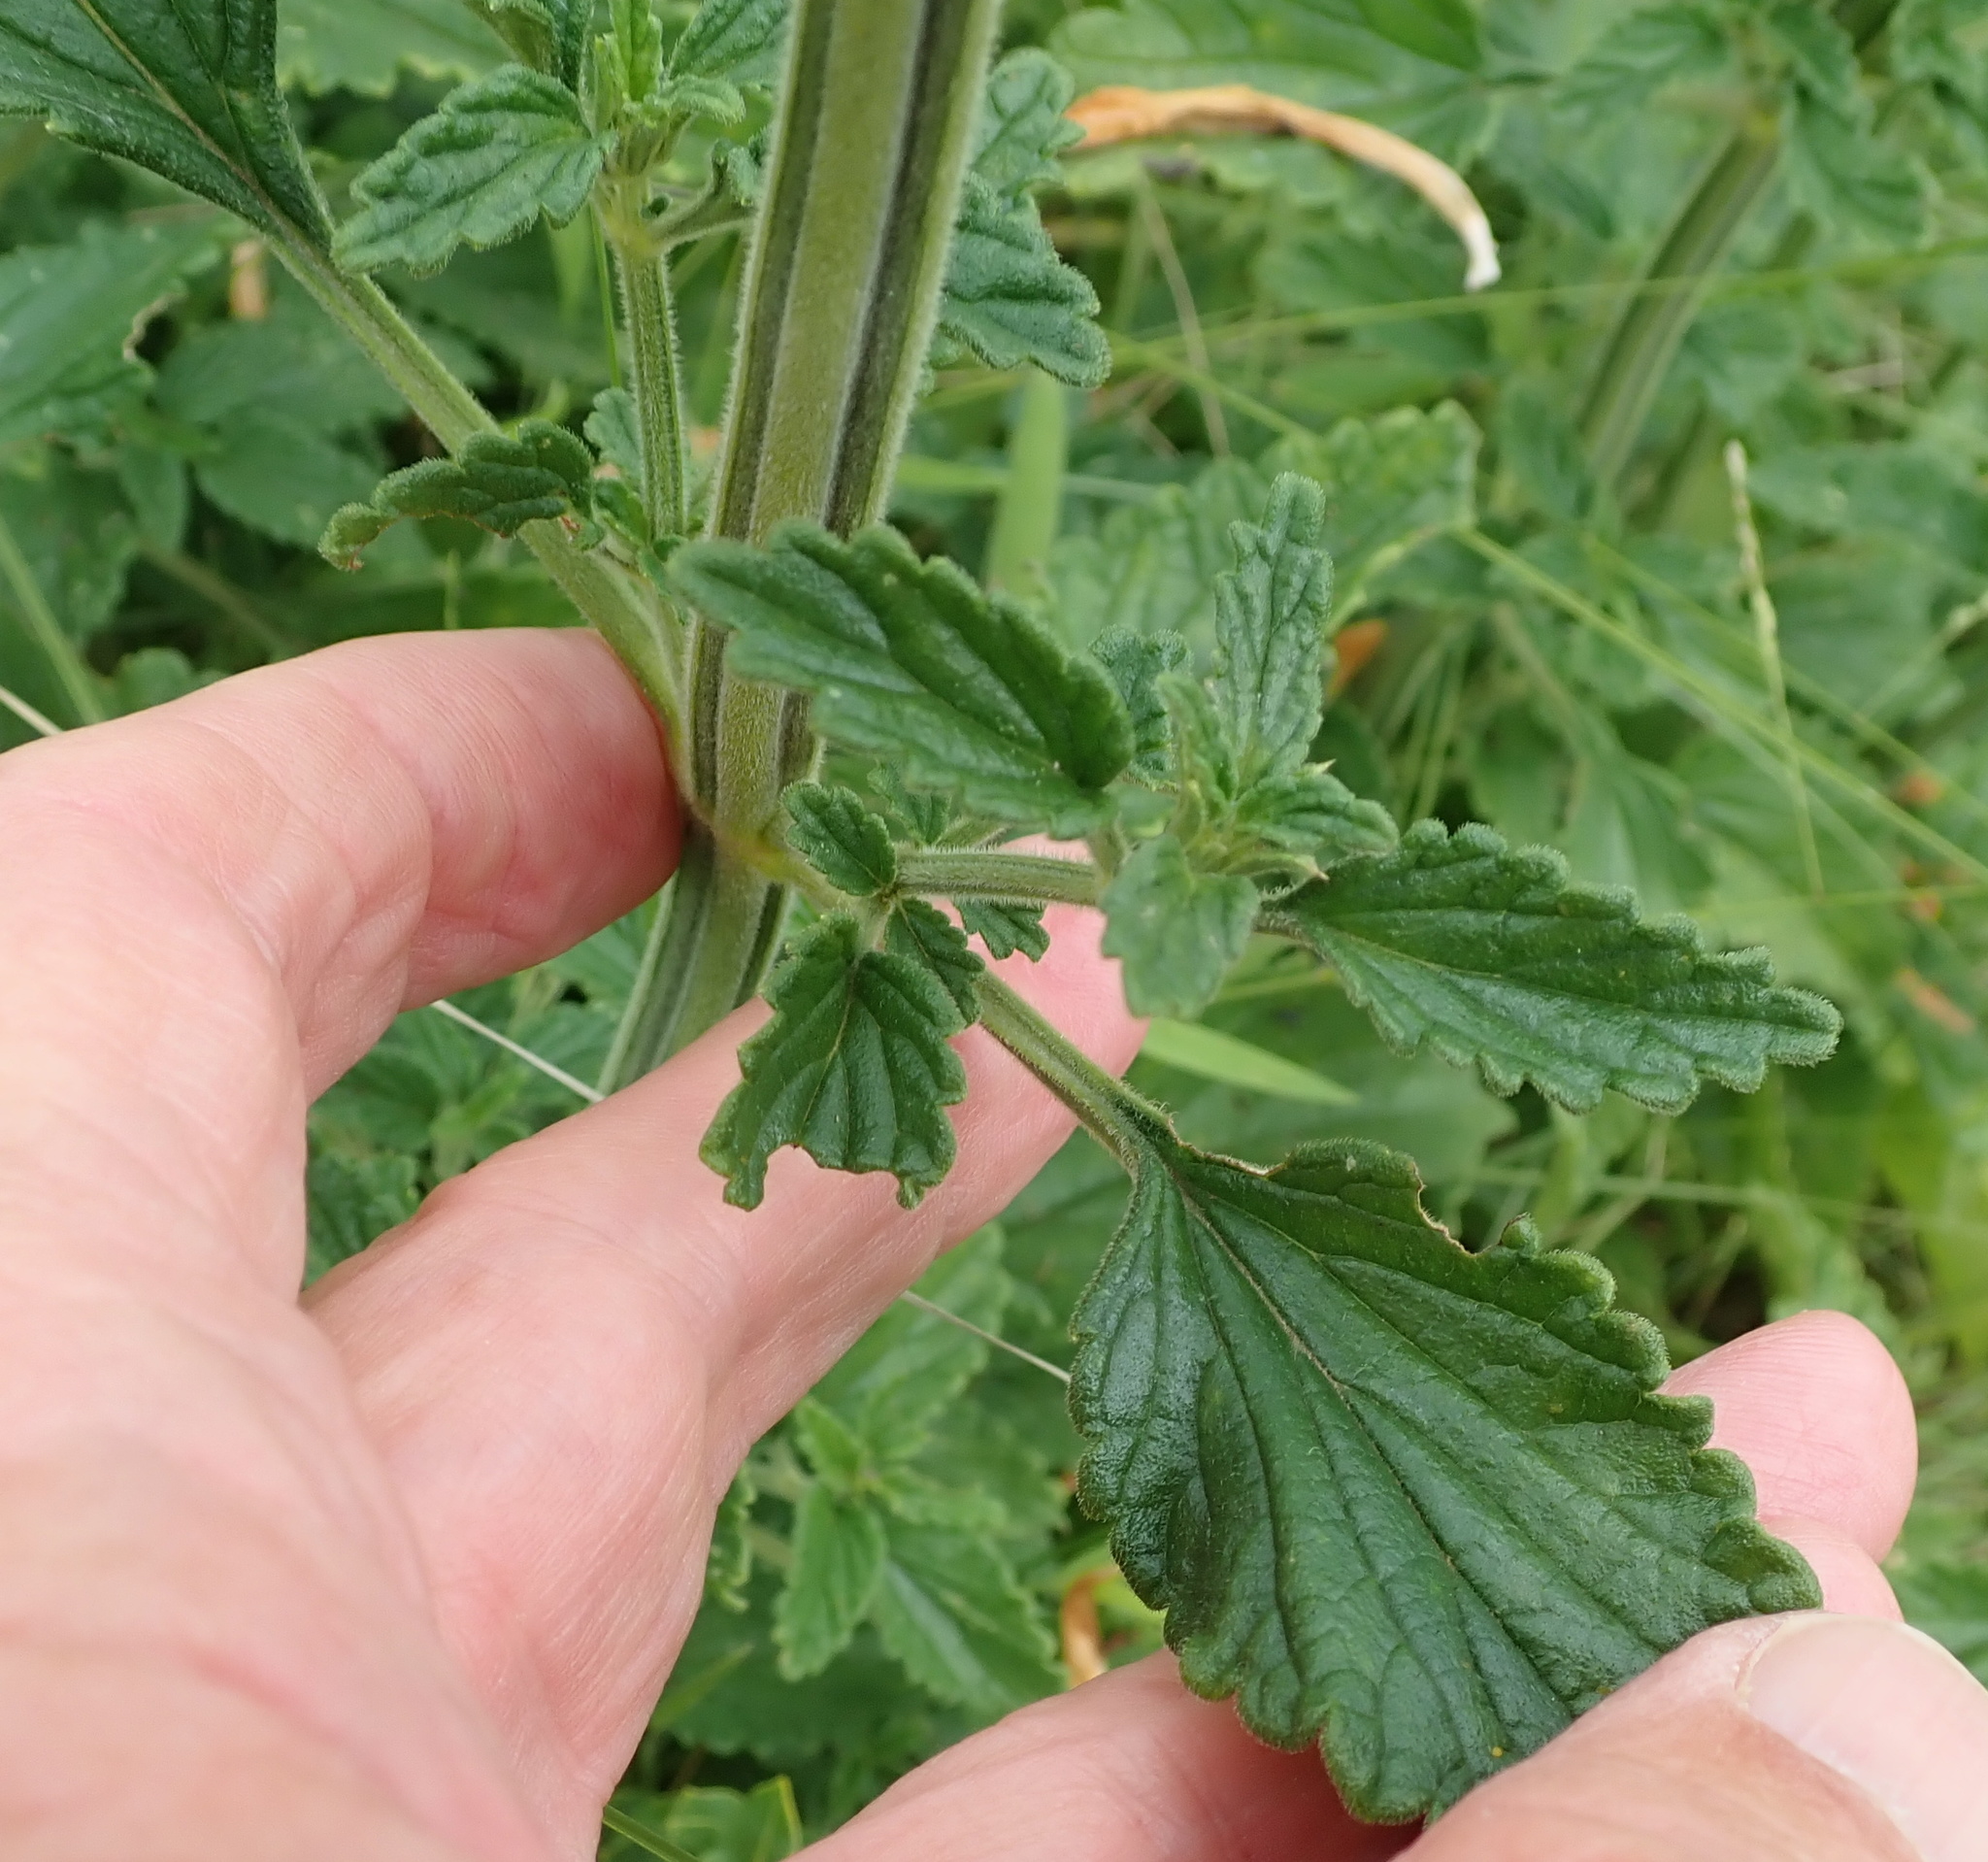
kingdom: Plantae
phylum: Tracheophyta
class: Magnoliopsida
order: Lamiales
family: Lamiaceae
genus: Leonotis
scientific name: Leonotis ocymifolia
